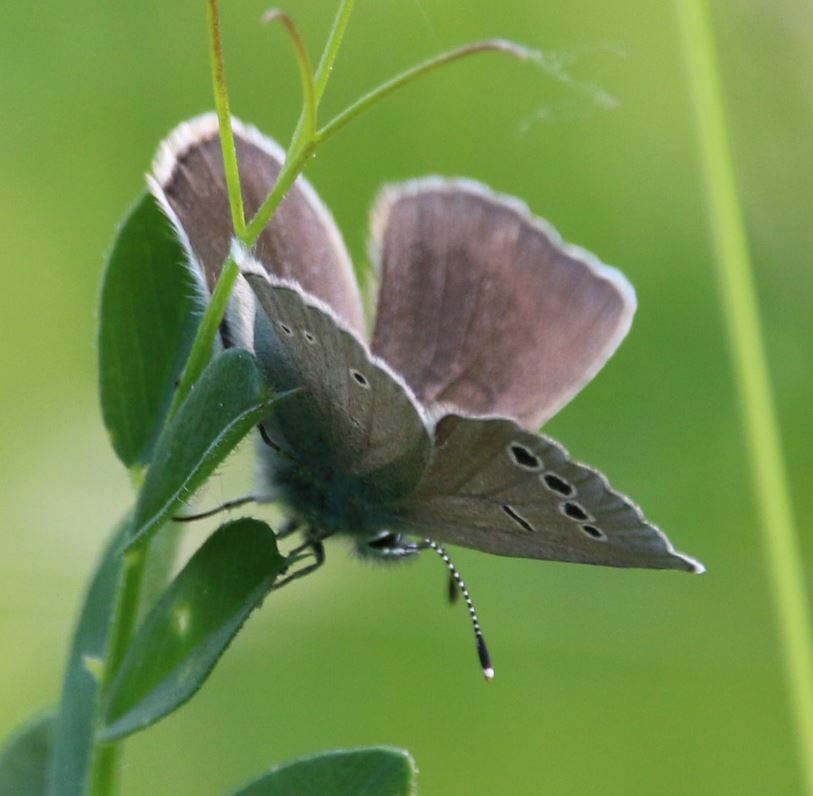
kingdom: Animalia
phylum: Arthropoda
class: Insecta
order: Lepidoptera
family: Lycaenidae
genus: Glaucopsyche
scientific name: Glaucopsyche alexis
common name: Green-underside blue
